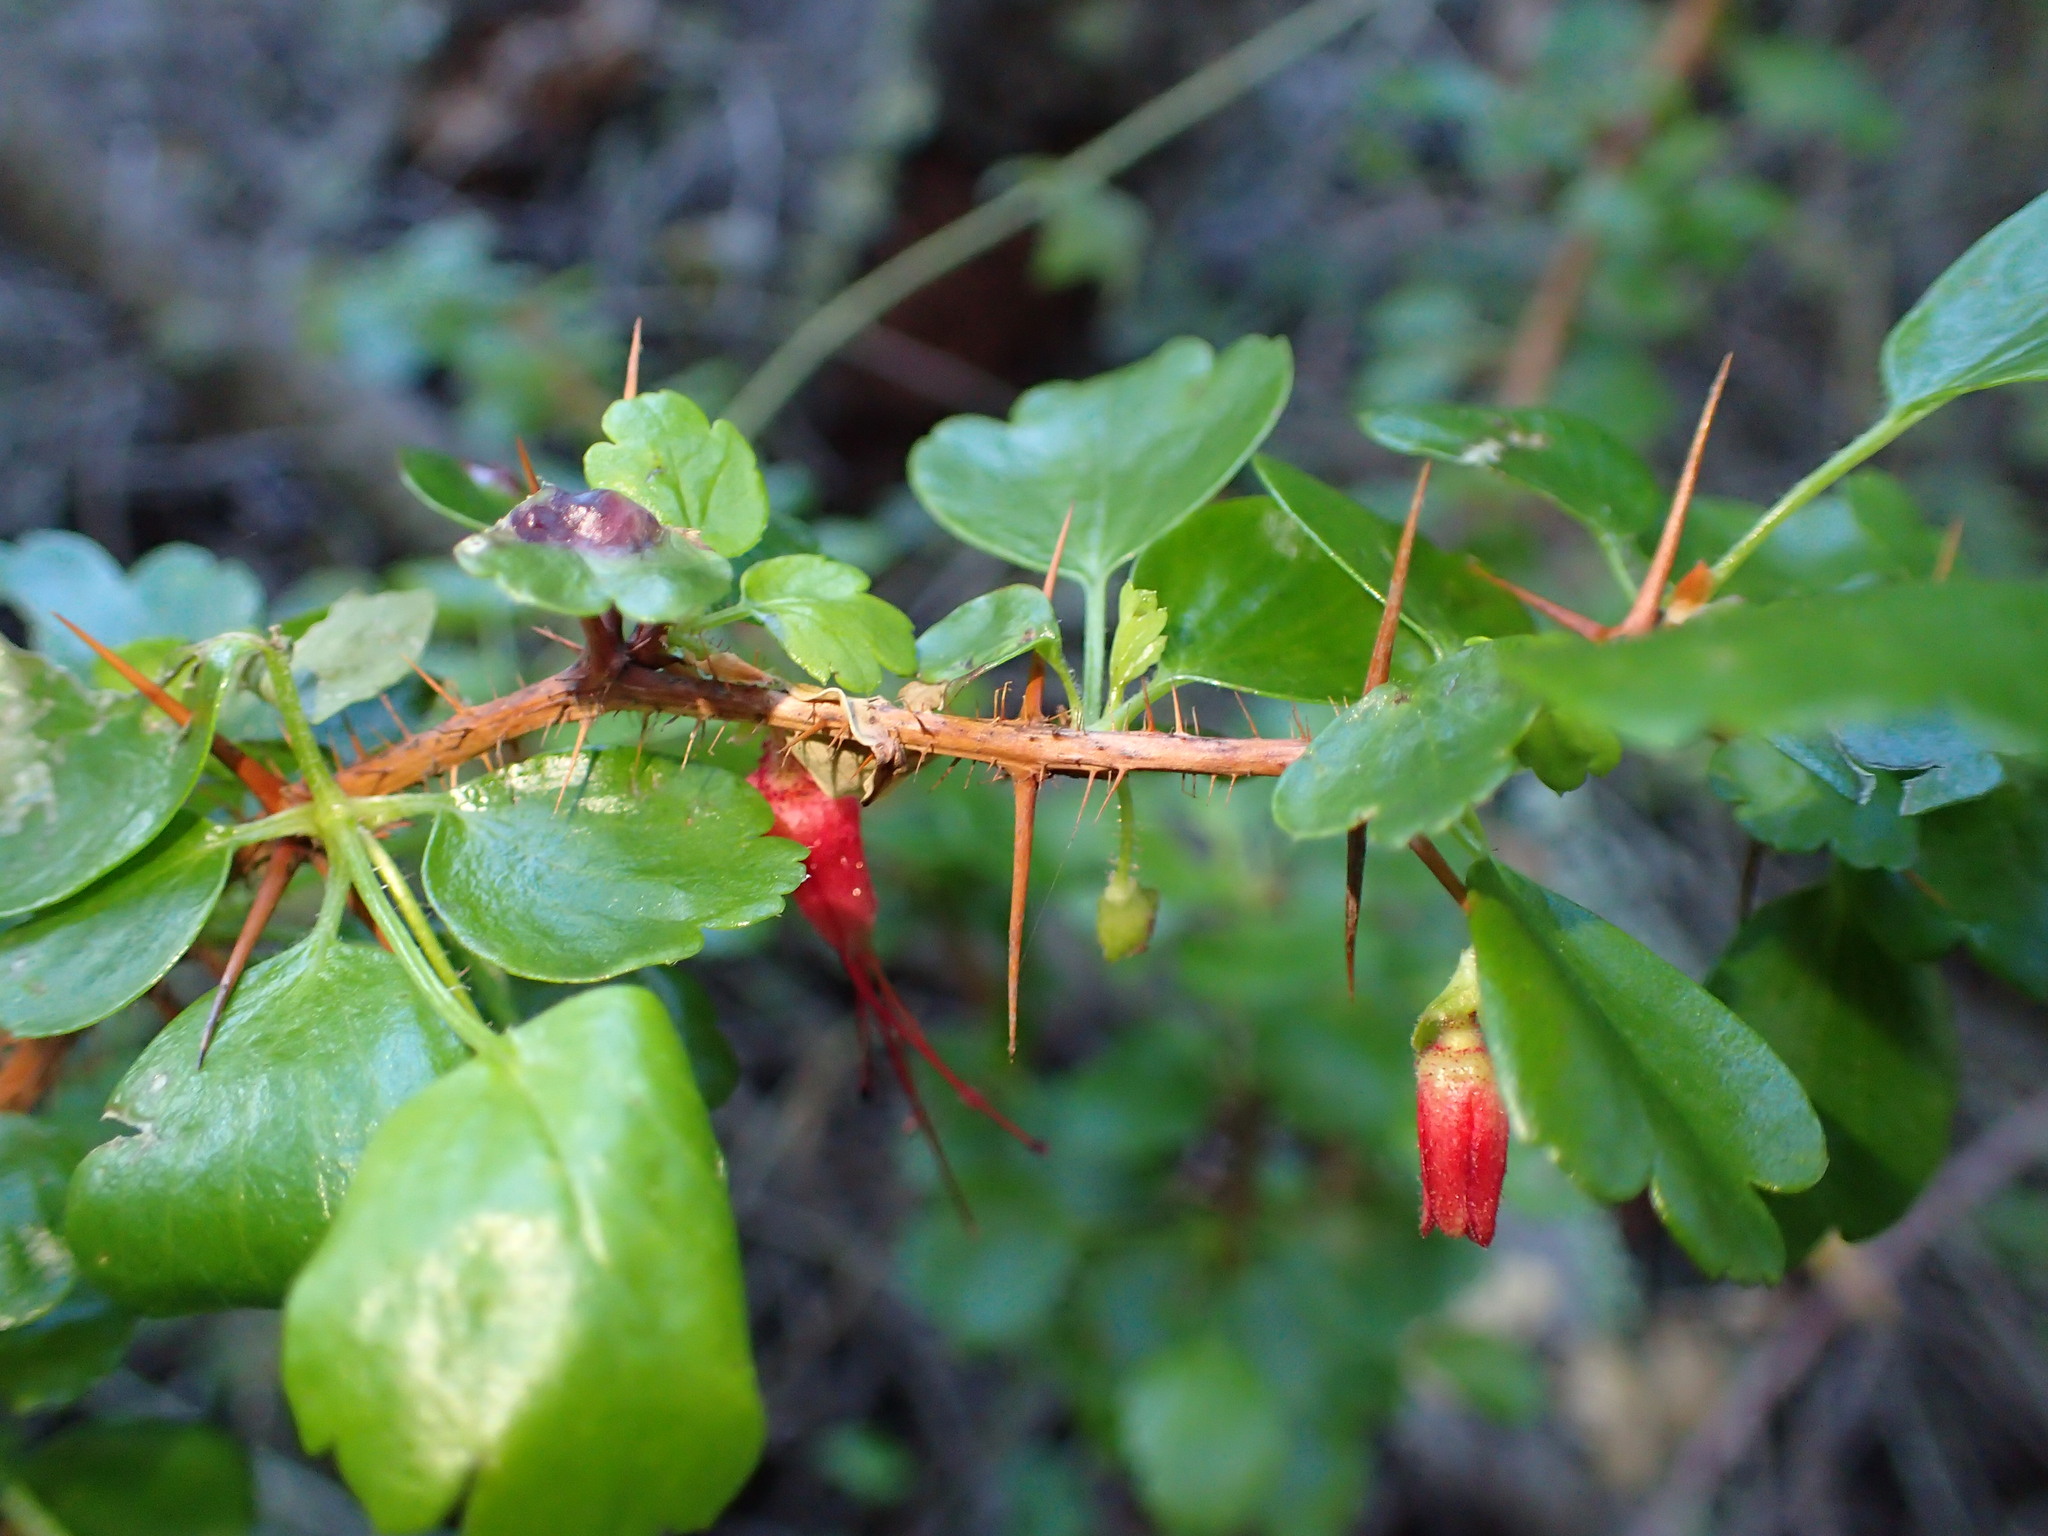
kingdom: Plantae
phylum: Tracheophyta
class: Magnoliopsida
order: Saxifragales
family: Grossulariaceae
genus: Ribes
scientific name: Ribes speciosum
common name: Fuchsia-flower gooseberry
